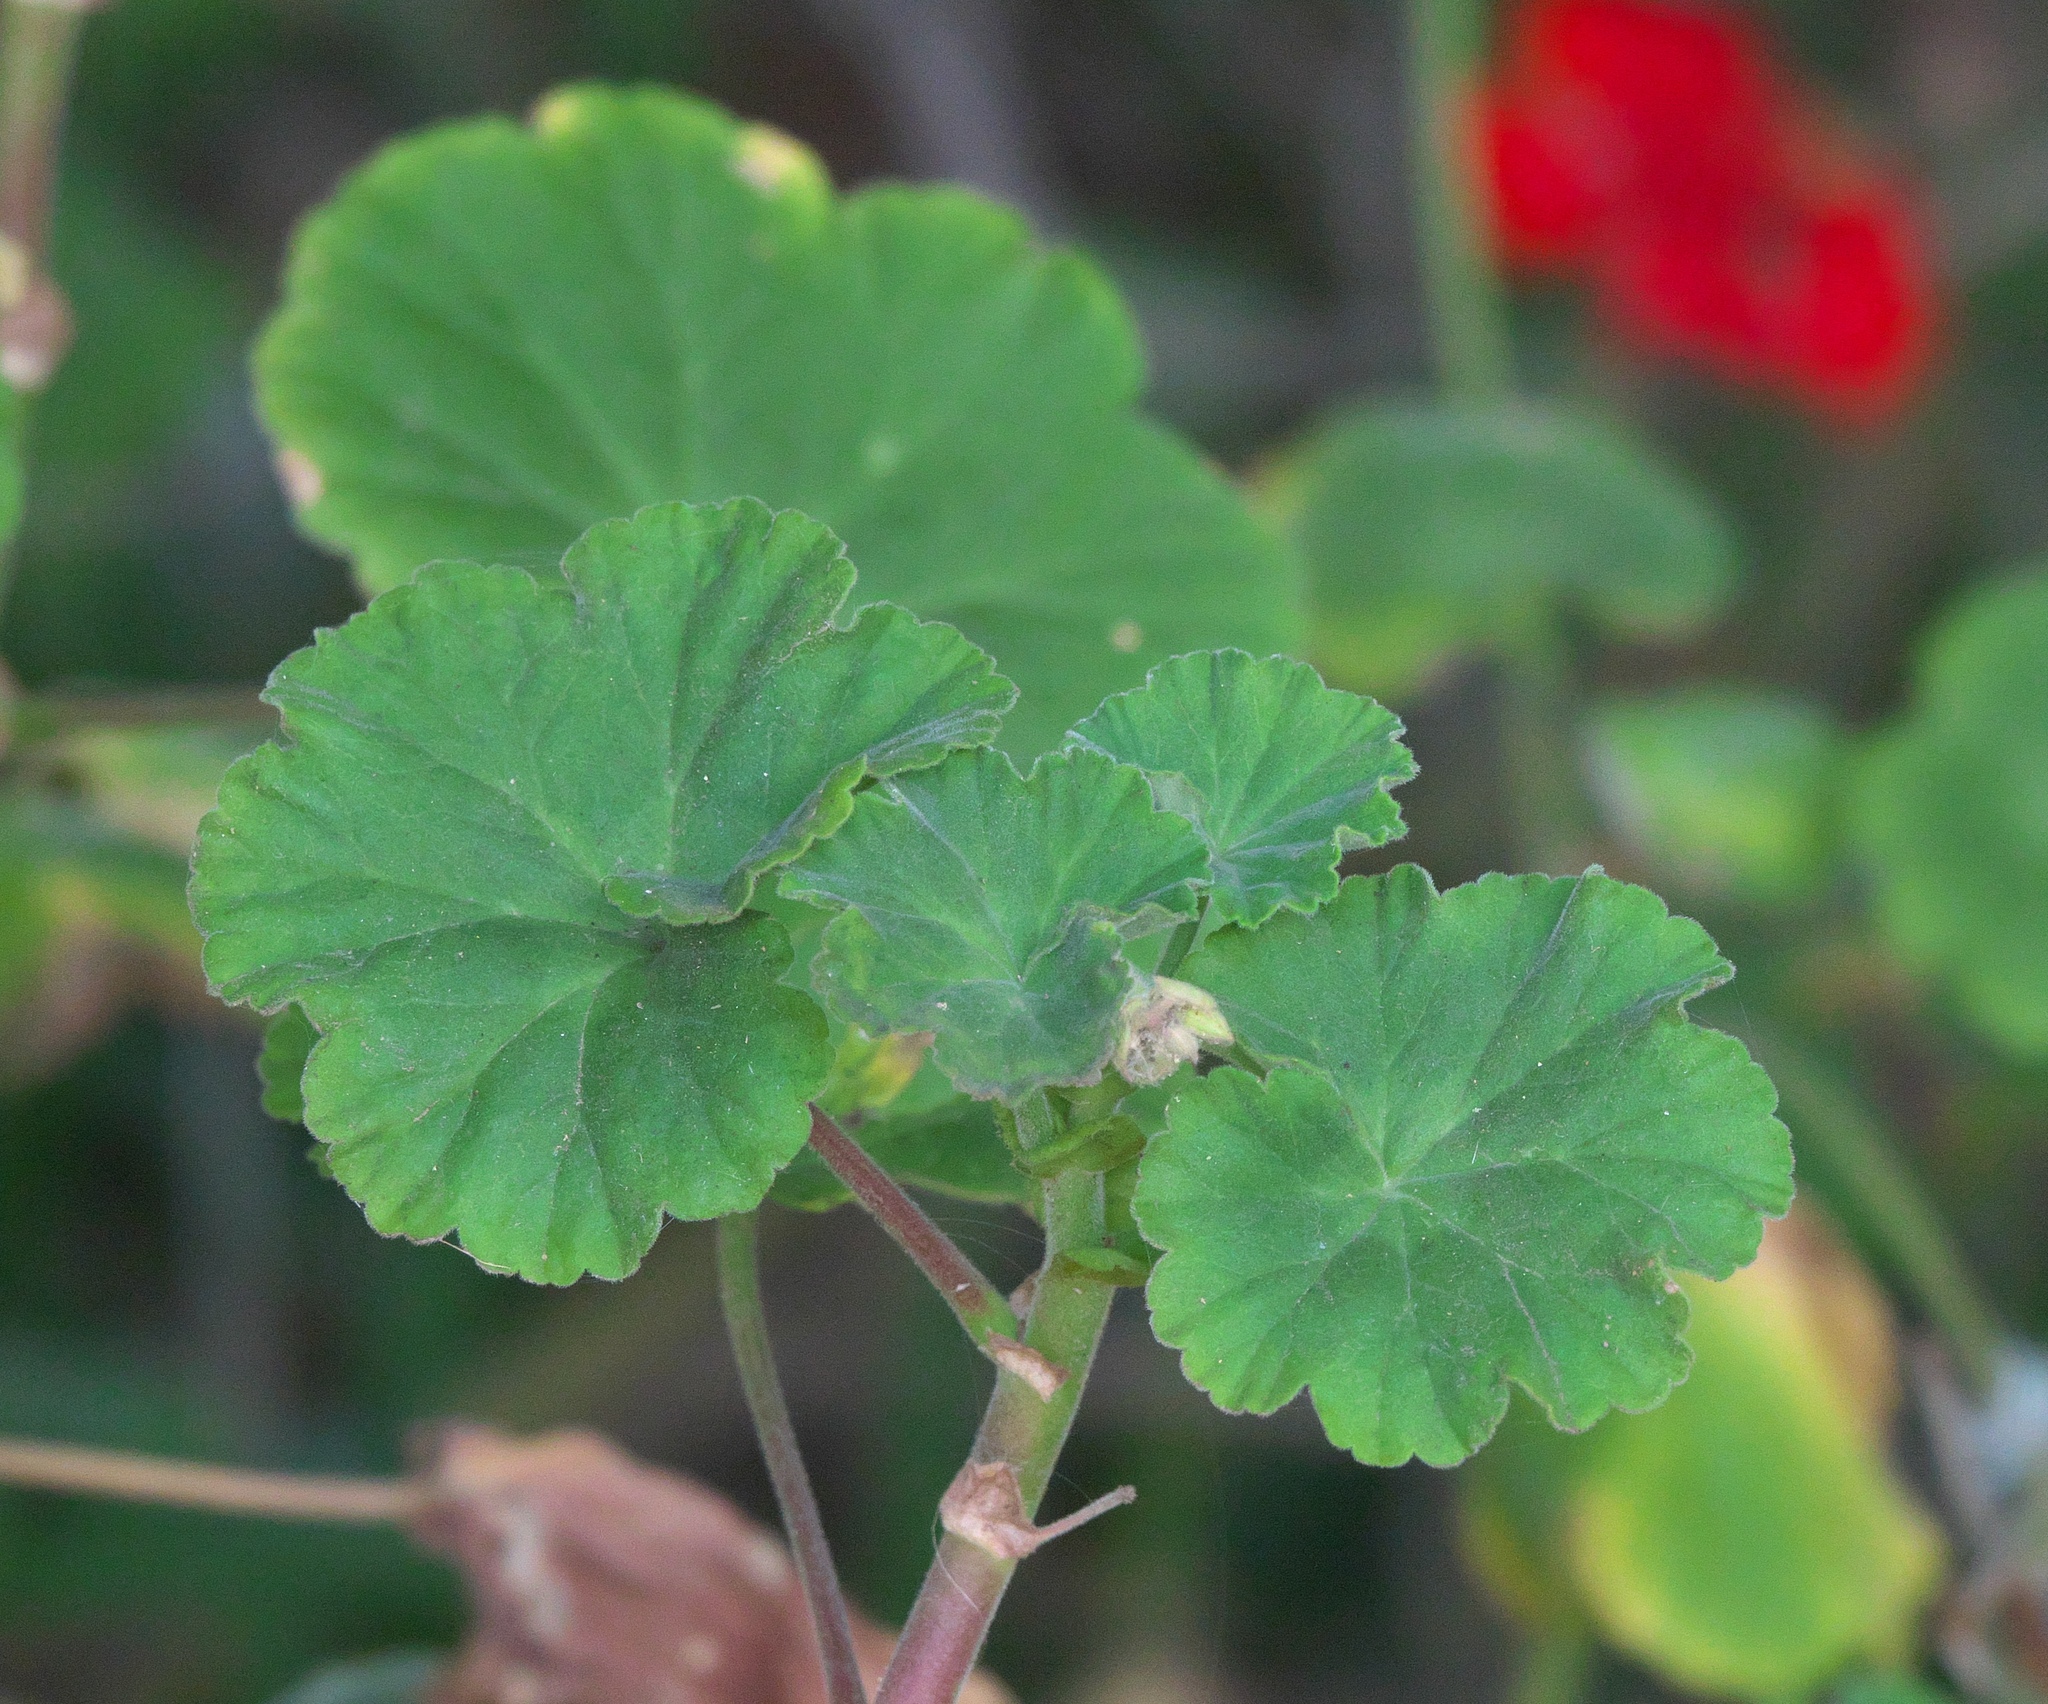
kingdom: Plantae
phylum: Tracheophyta
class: Magnoliopsida
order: Geraniales
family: Geraniaceae
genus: Pelargonium
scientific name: Pelargonium hybridum
